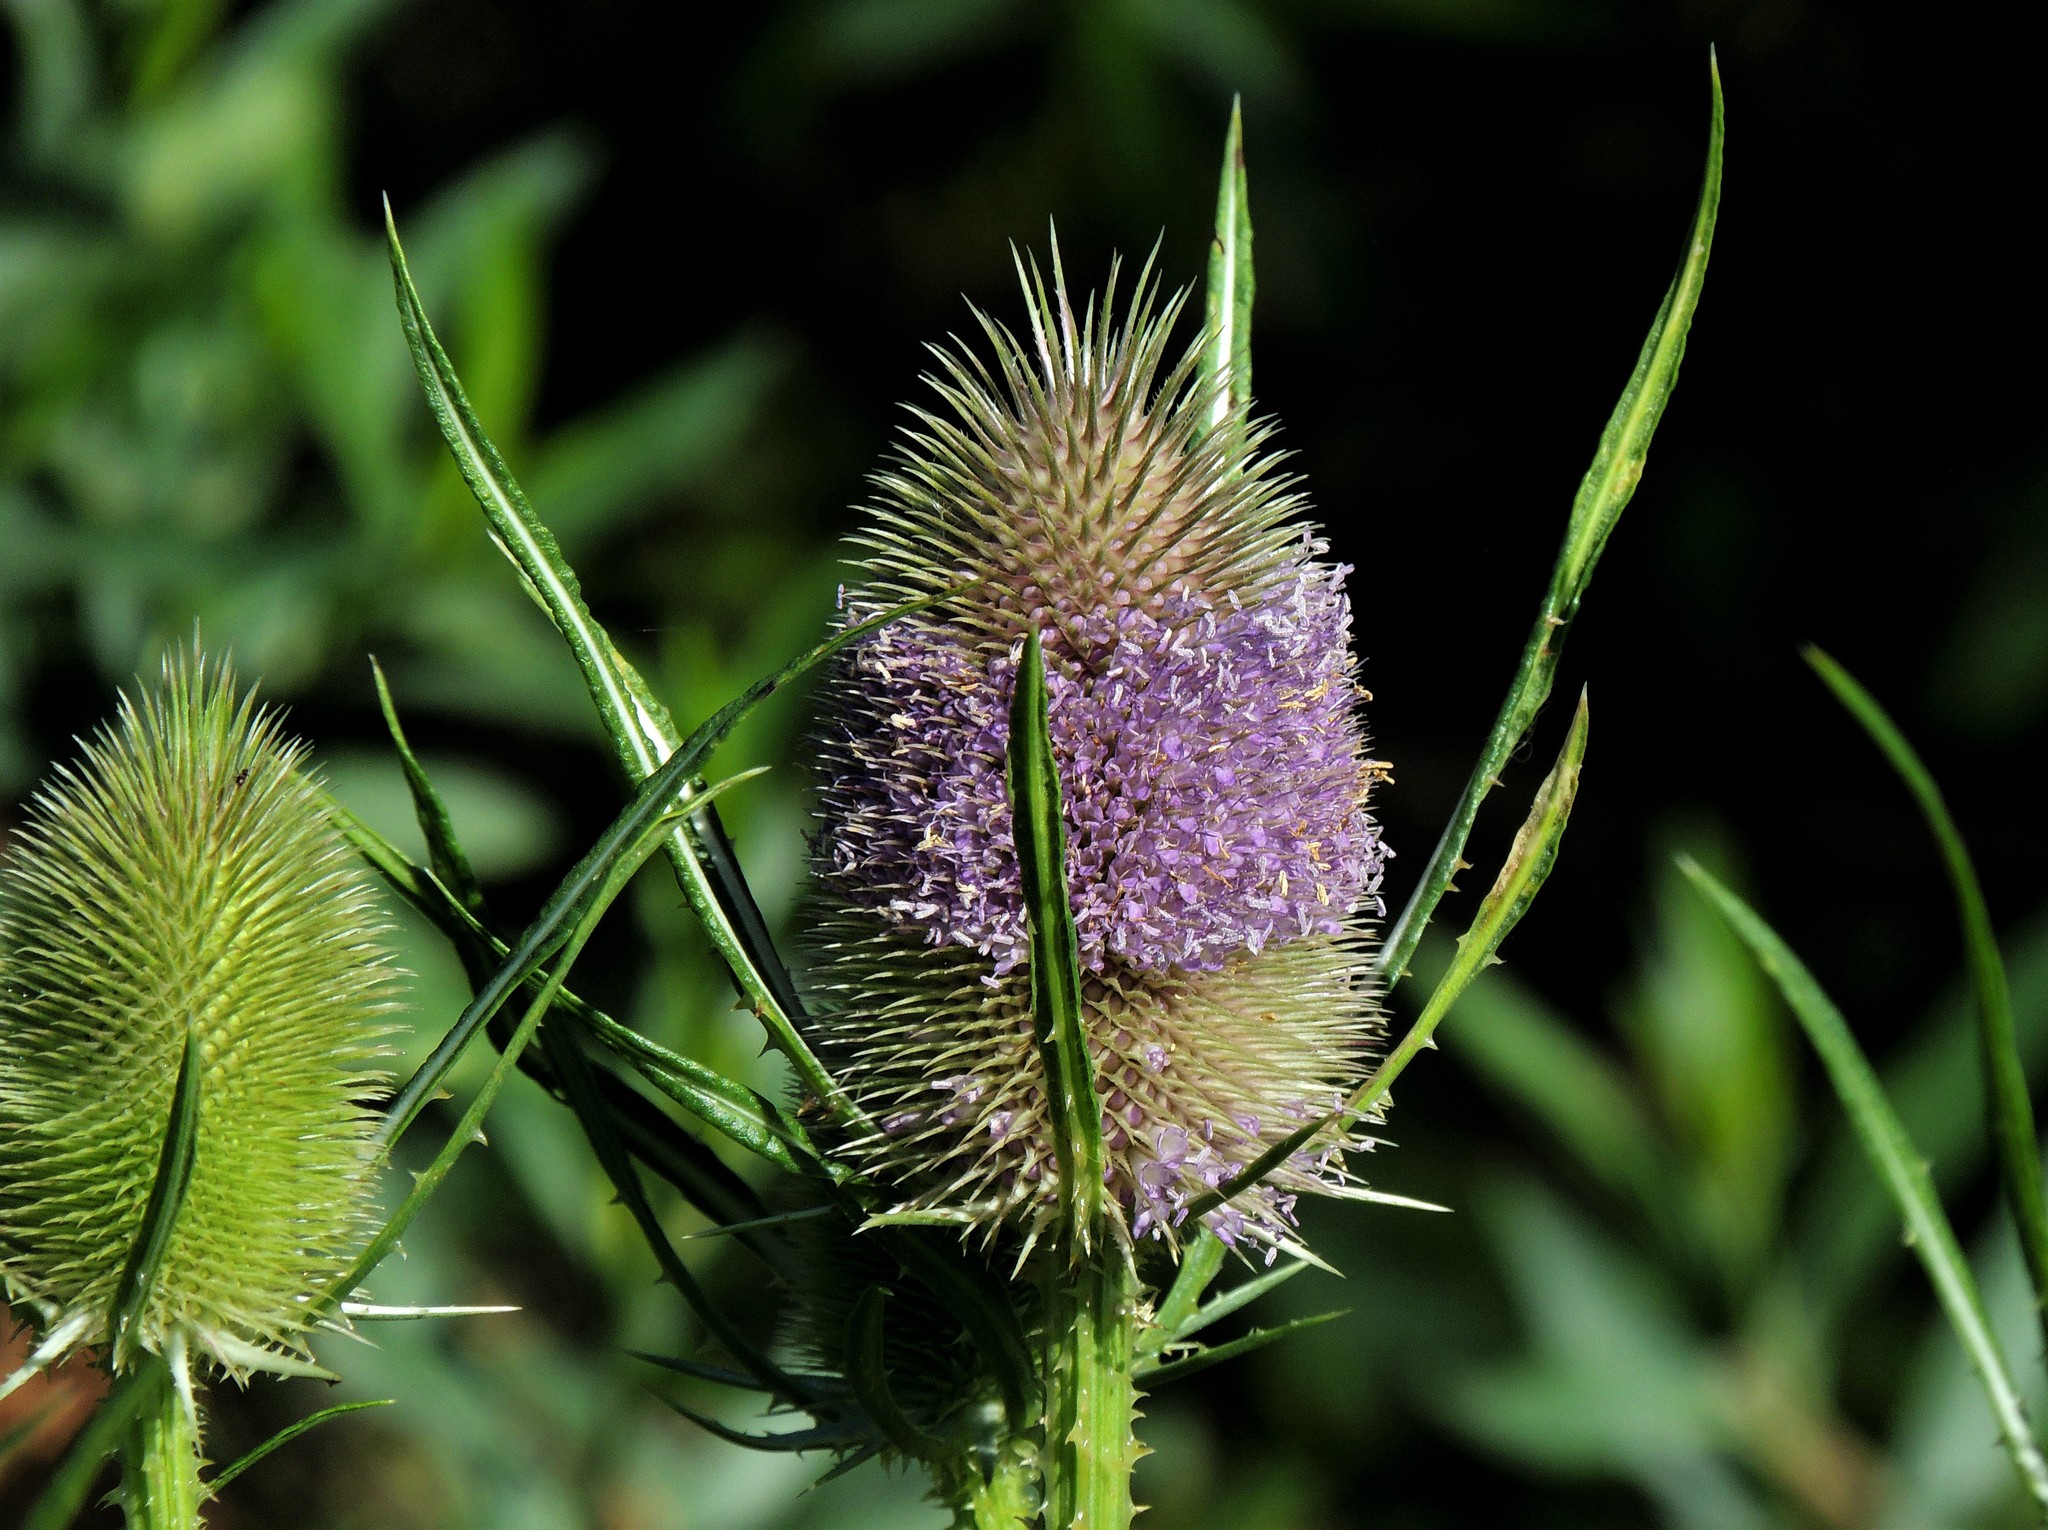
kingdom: Plantae
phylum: Tracheophyta
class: Magnoliopsida
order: Dipsacales
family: Caprifoliaceae
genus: Dipsacus
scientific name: Dipsacus fullonum
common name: Teasel
